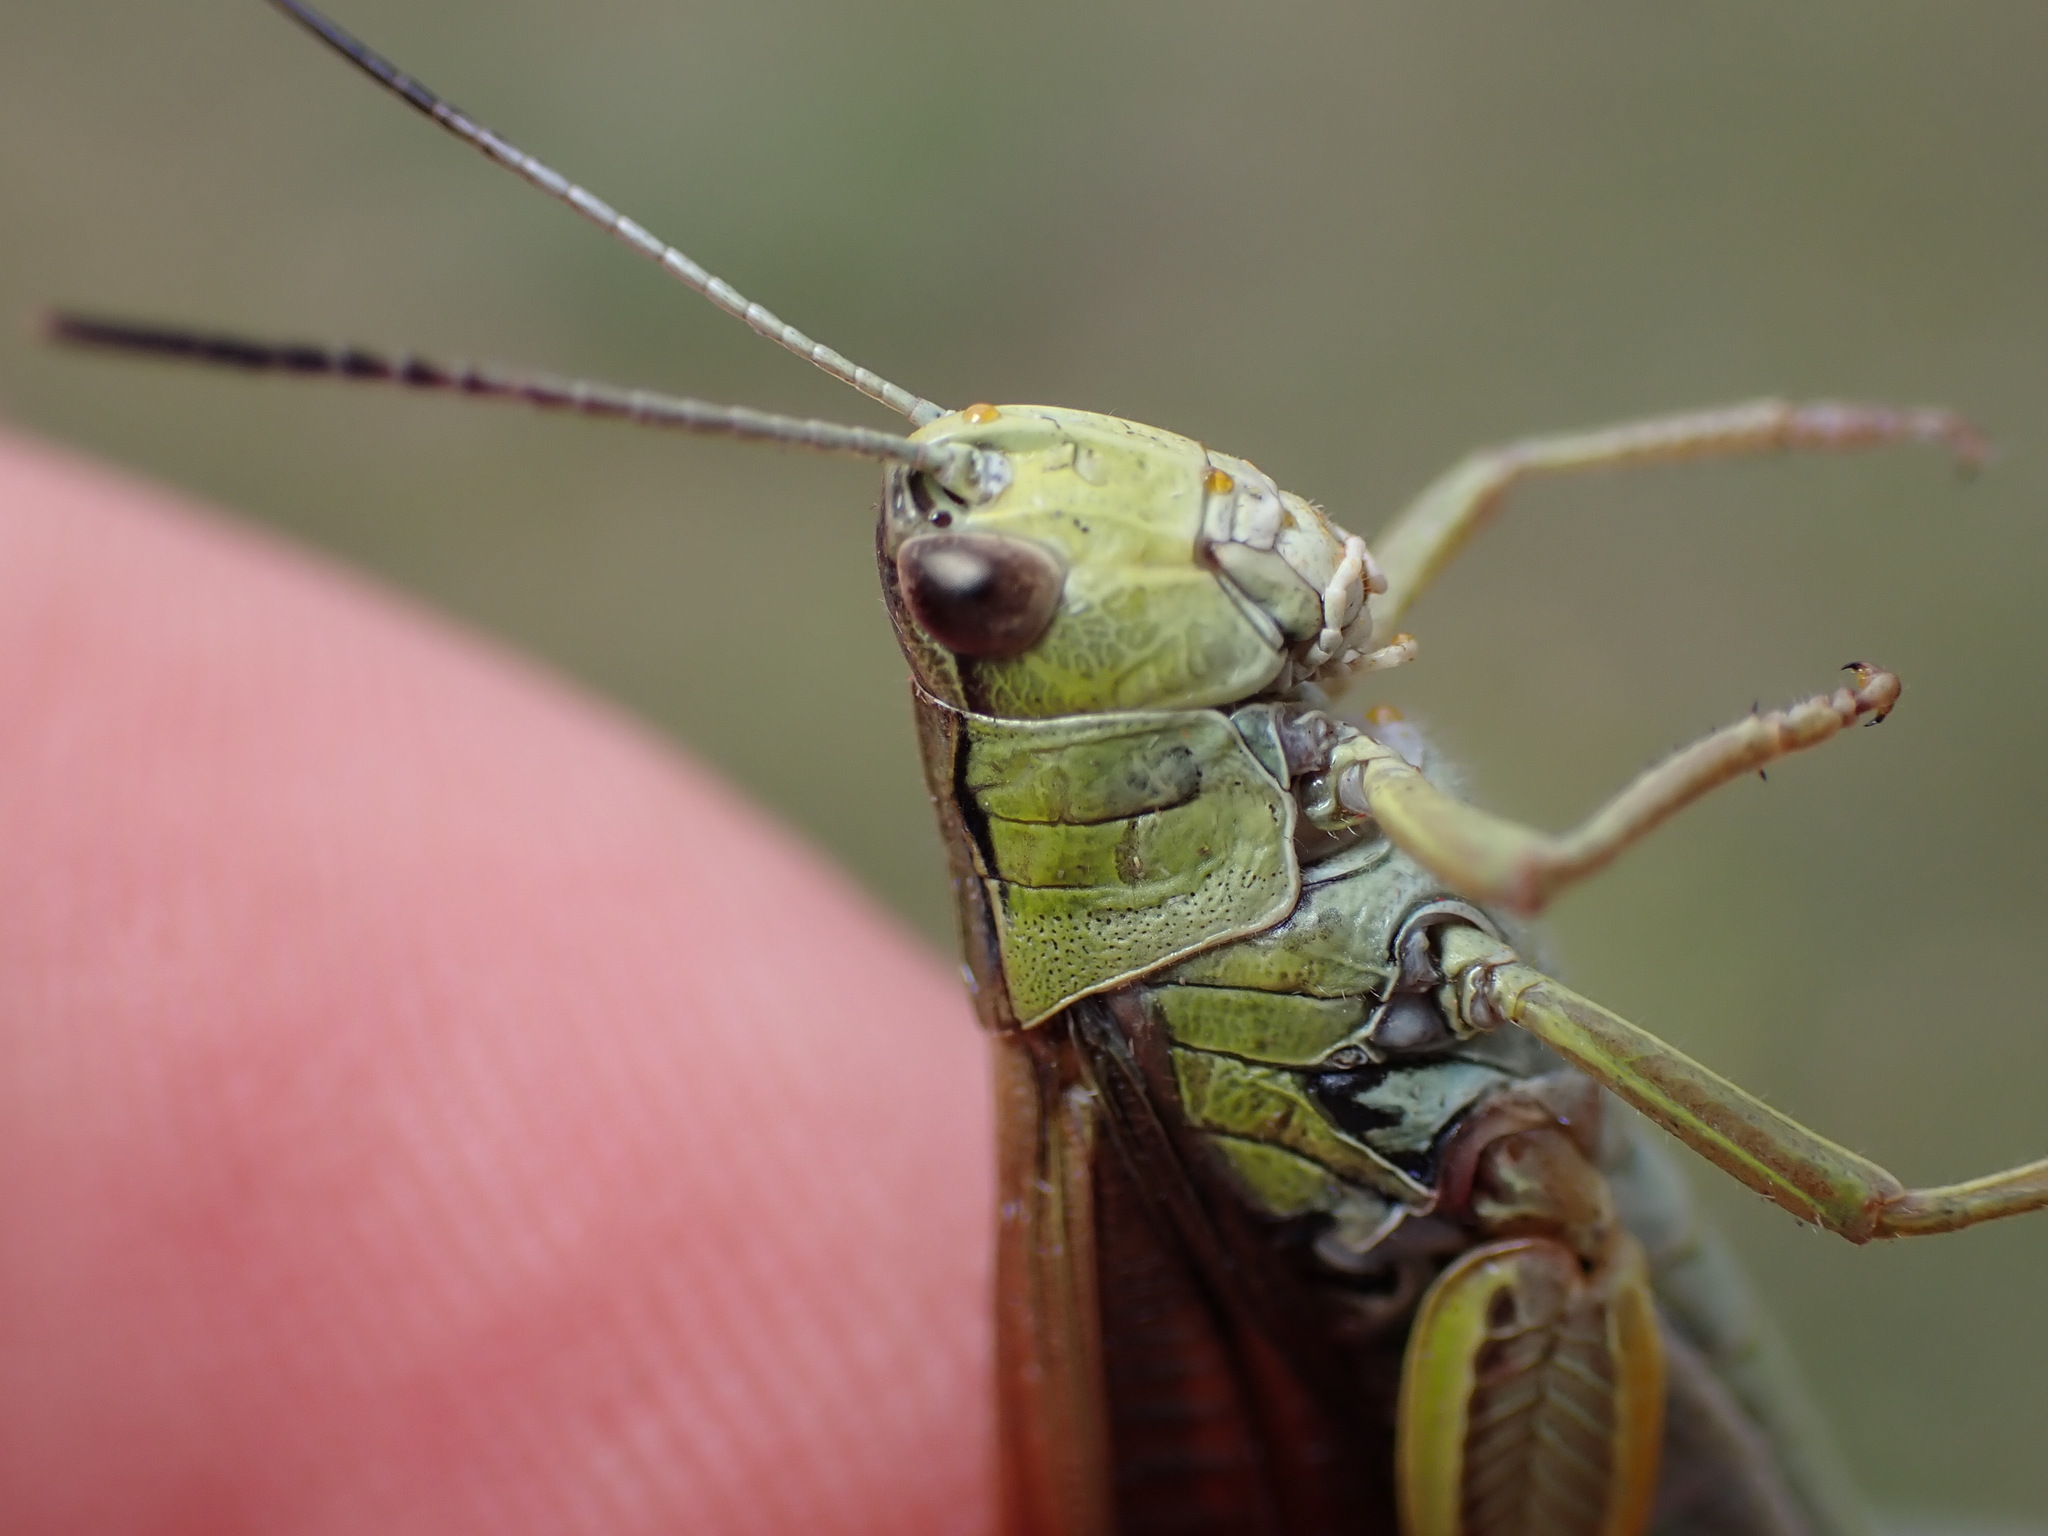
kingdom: Animalia
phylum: Arthropoda
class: Insecta
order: Orthoptera
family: Acrididae
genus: Stauroderus
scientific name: Stauroderus scalaris
